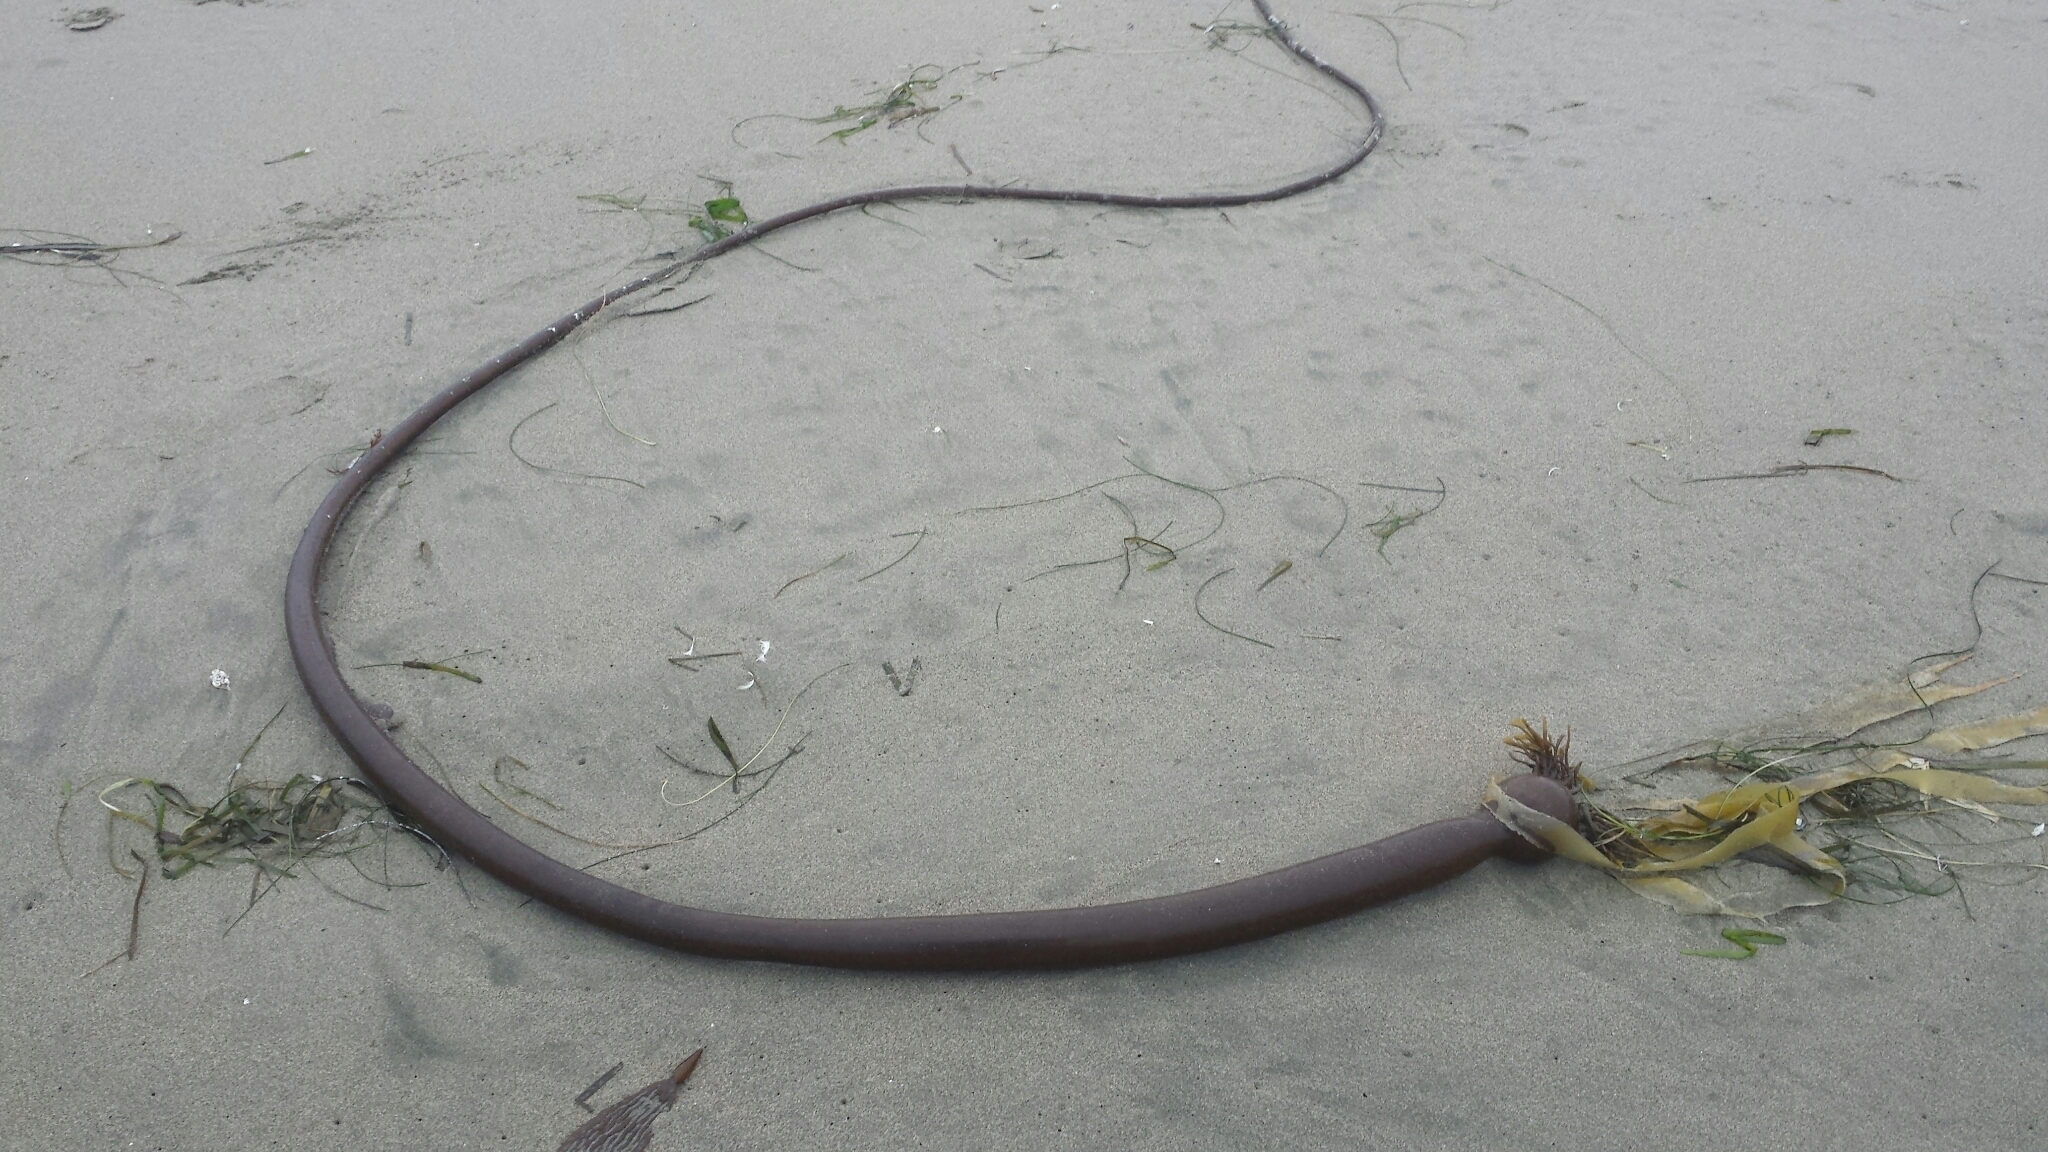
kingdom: Chromista
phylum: Ochrophyta
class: Phaeophyceae
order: Laminariales
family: Laminariaceae
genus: Nereocystis
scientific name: Nereocystis luetkeana
